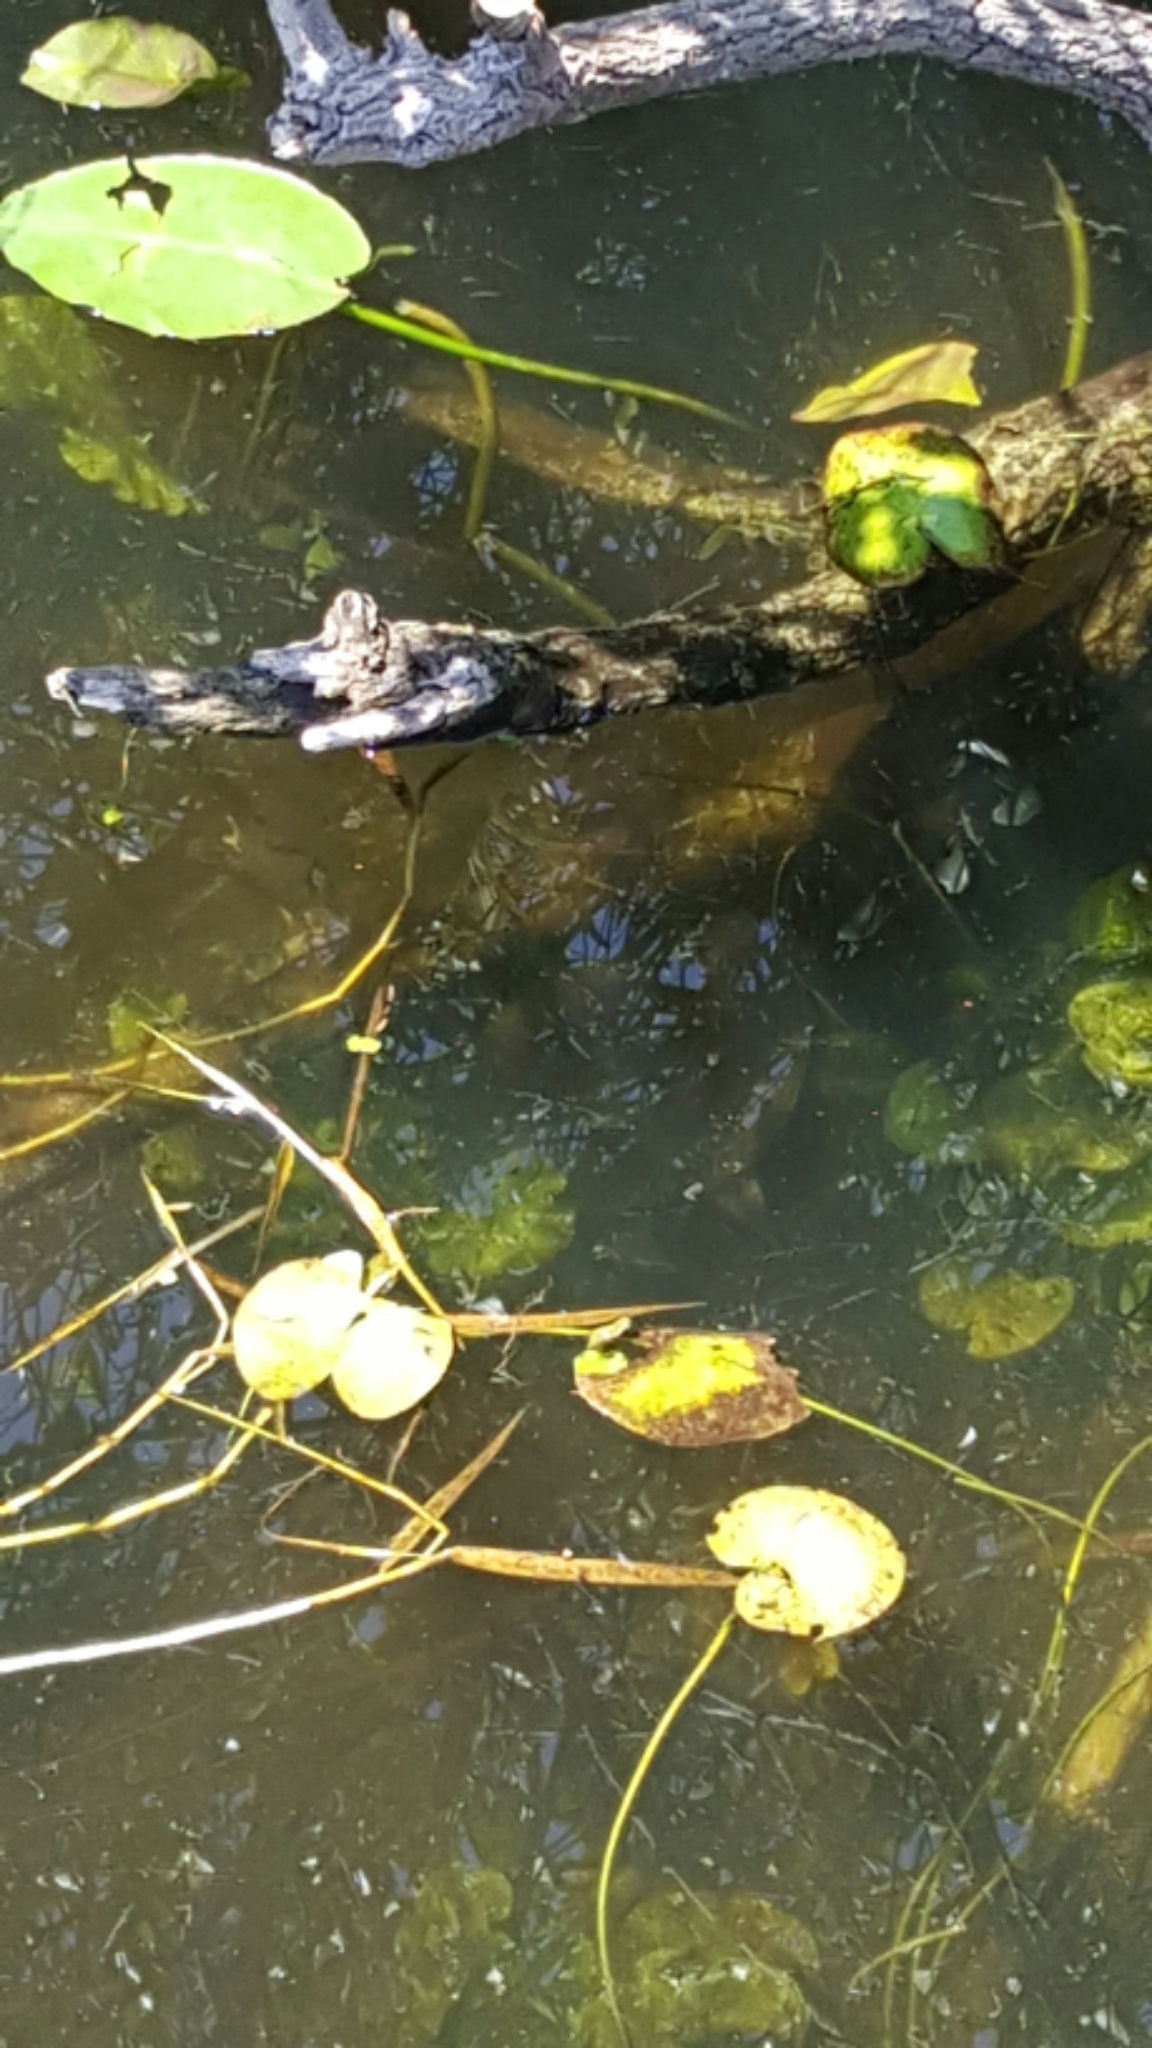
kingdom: Animalia
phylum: Chordata
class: Testudines
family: Trionychidae
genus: Apalone
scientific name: Apalone ferox
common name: Florida softshell turtle
